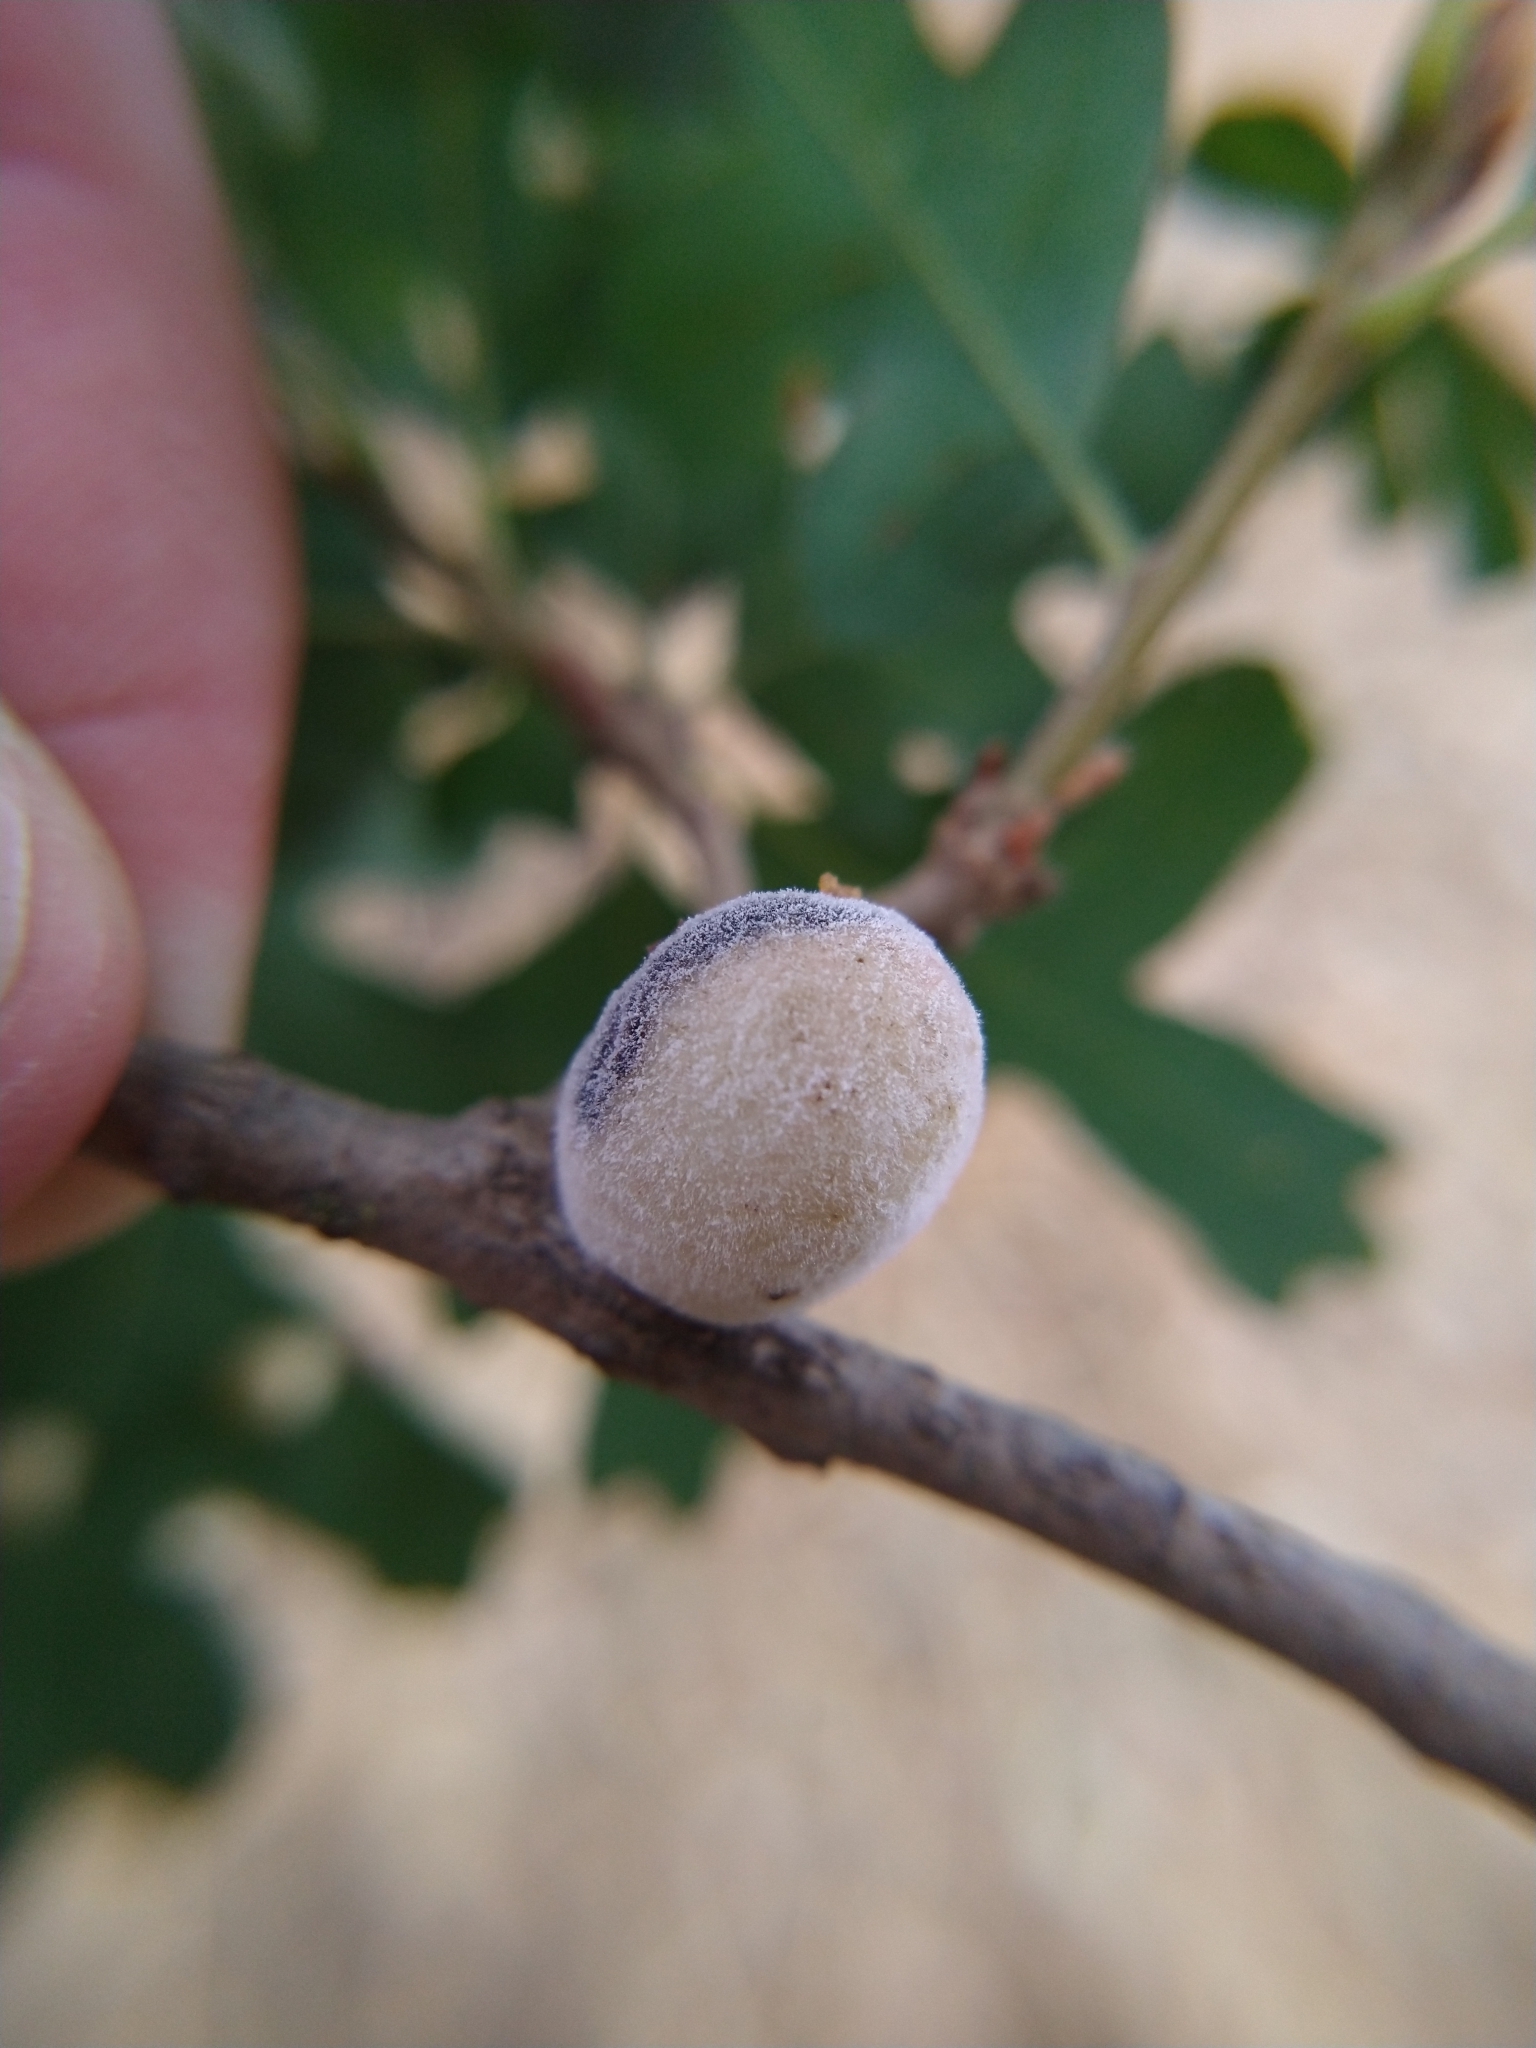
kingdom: Animalia
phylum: Arthropoda
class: Insecta
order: Hymenoptera
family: Cynipidae
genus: Burnettweldia
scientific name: Burnettweldia
